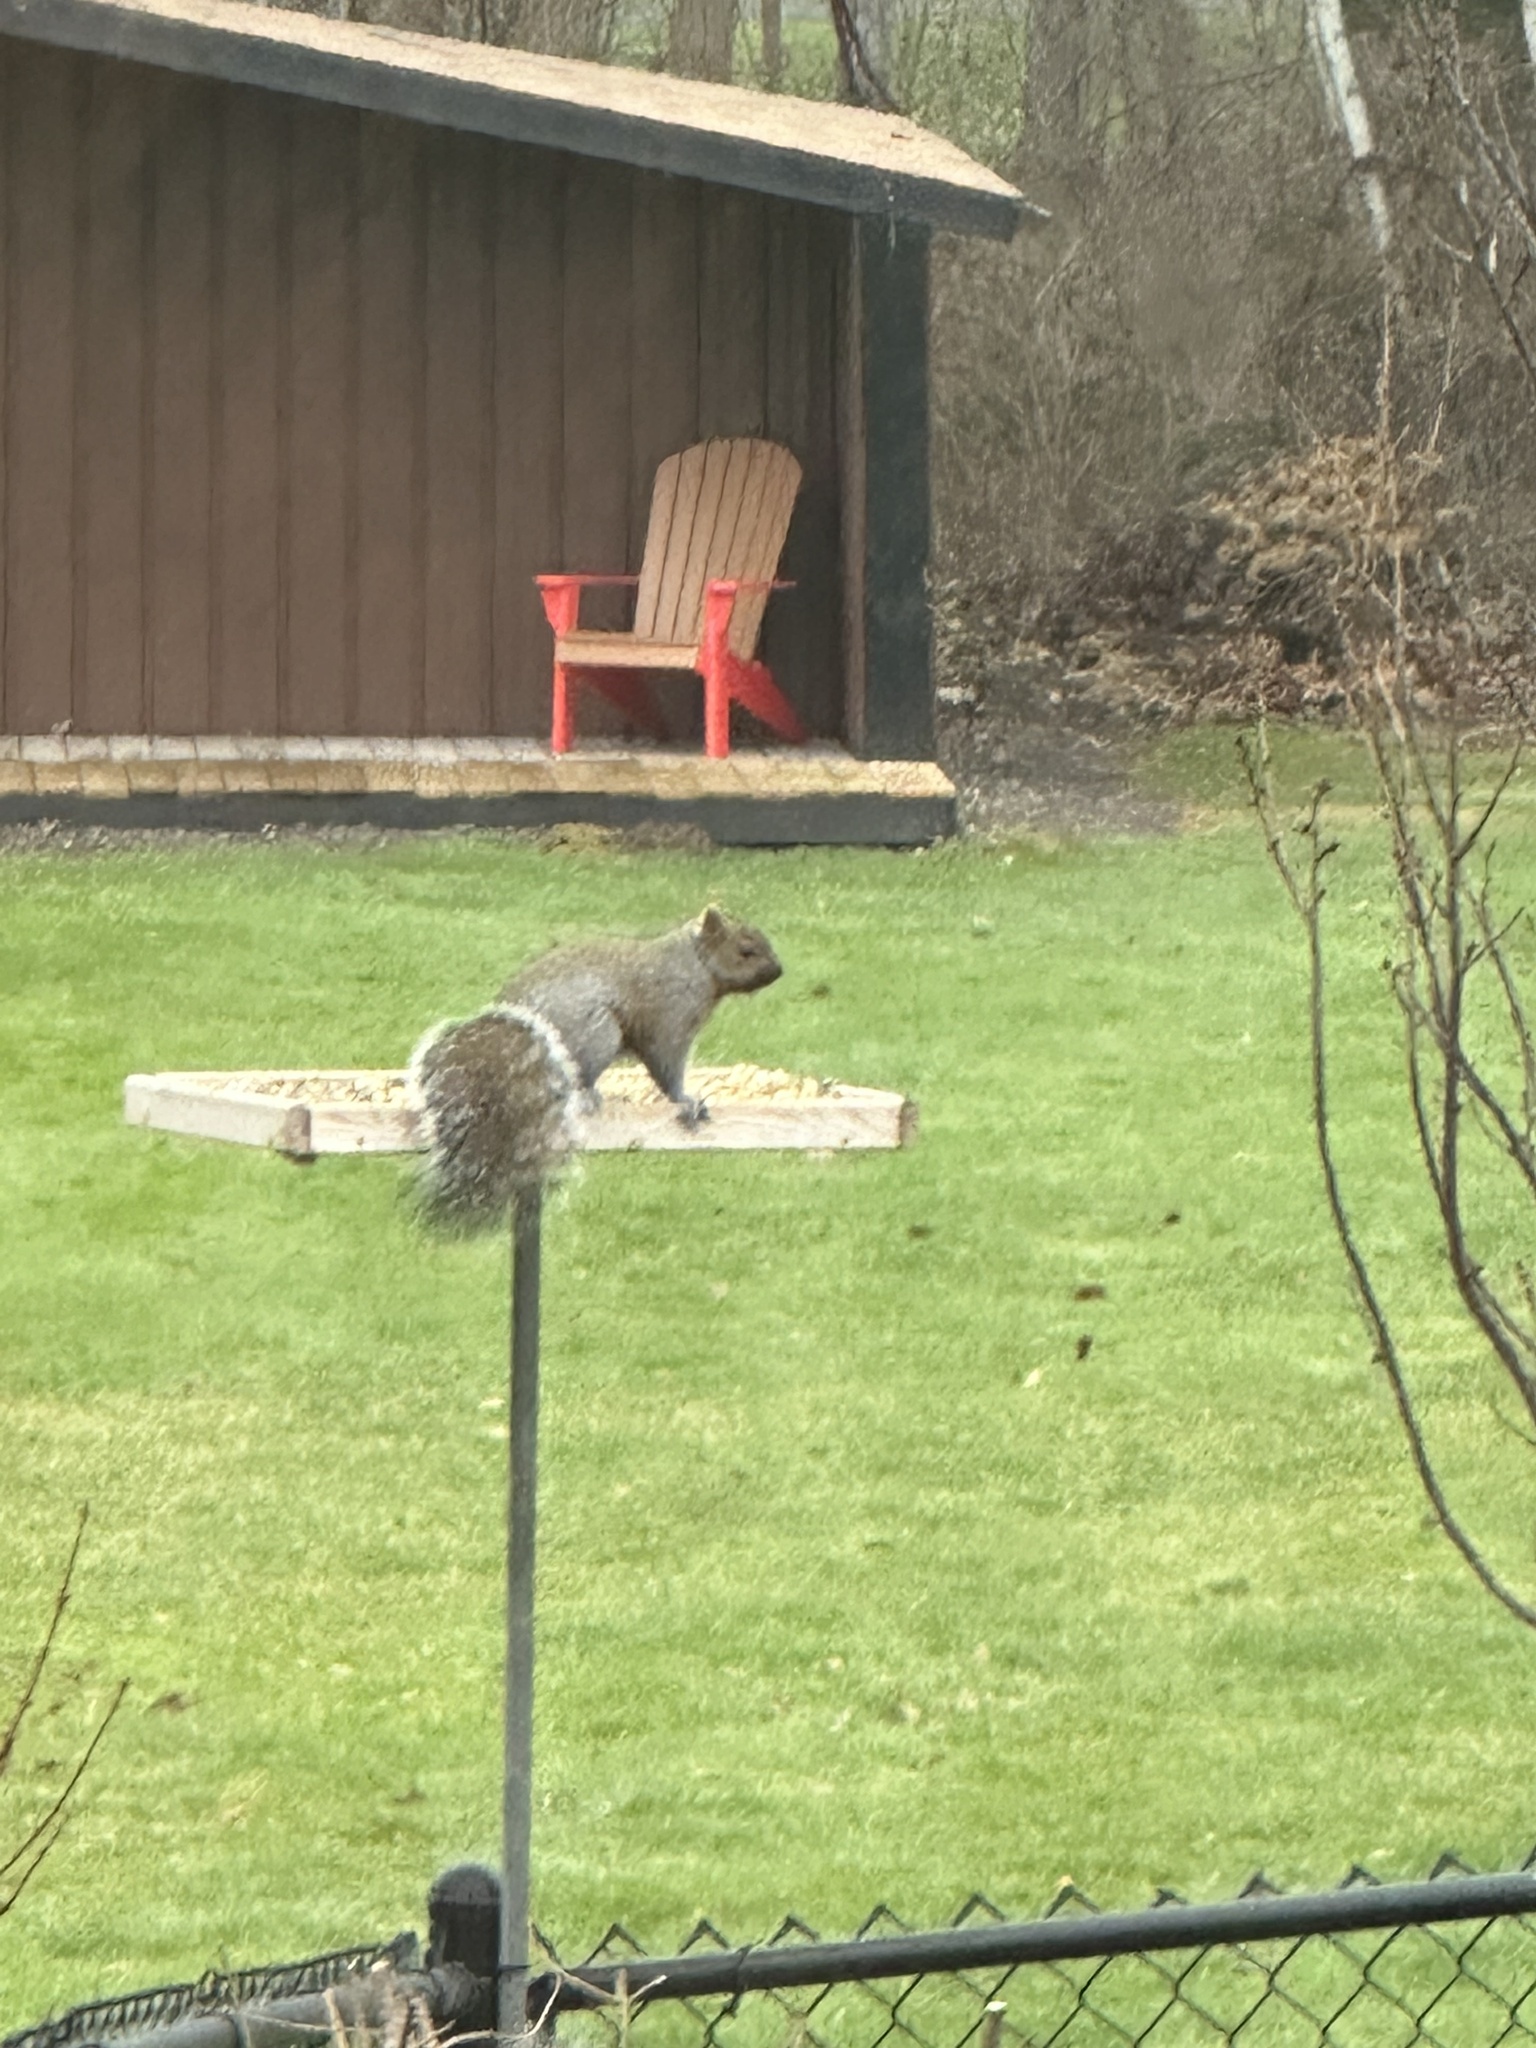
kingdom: Animalia
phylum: Chordata
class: Mammalia
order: Rodentia
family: Sciuridae
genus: Sciurus
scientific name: Sciurus carolinensis
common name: Eastern gray squirrel
